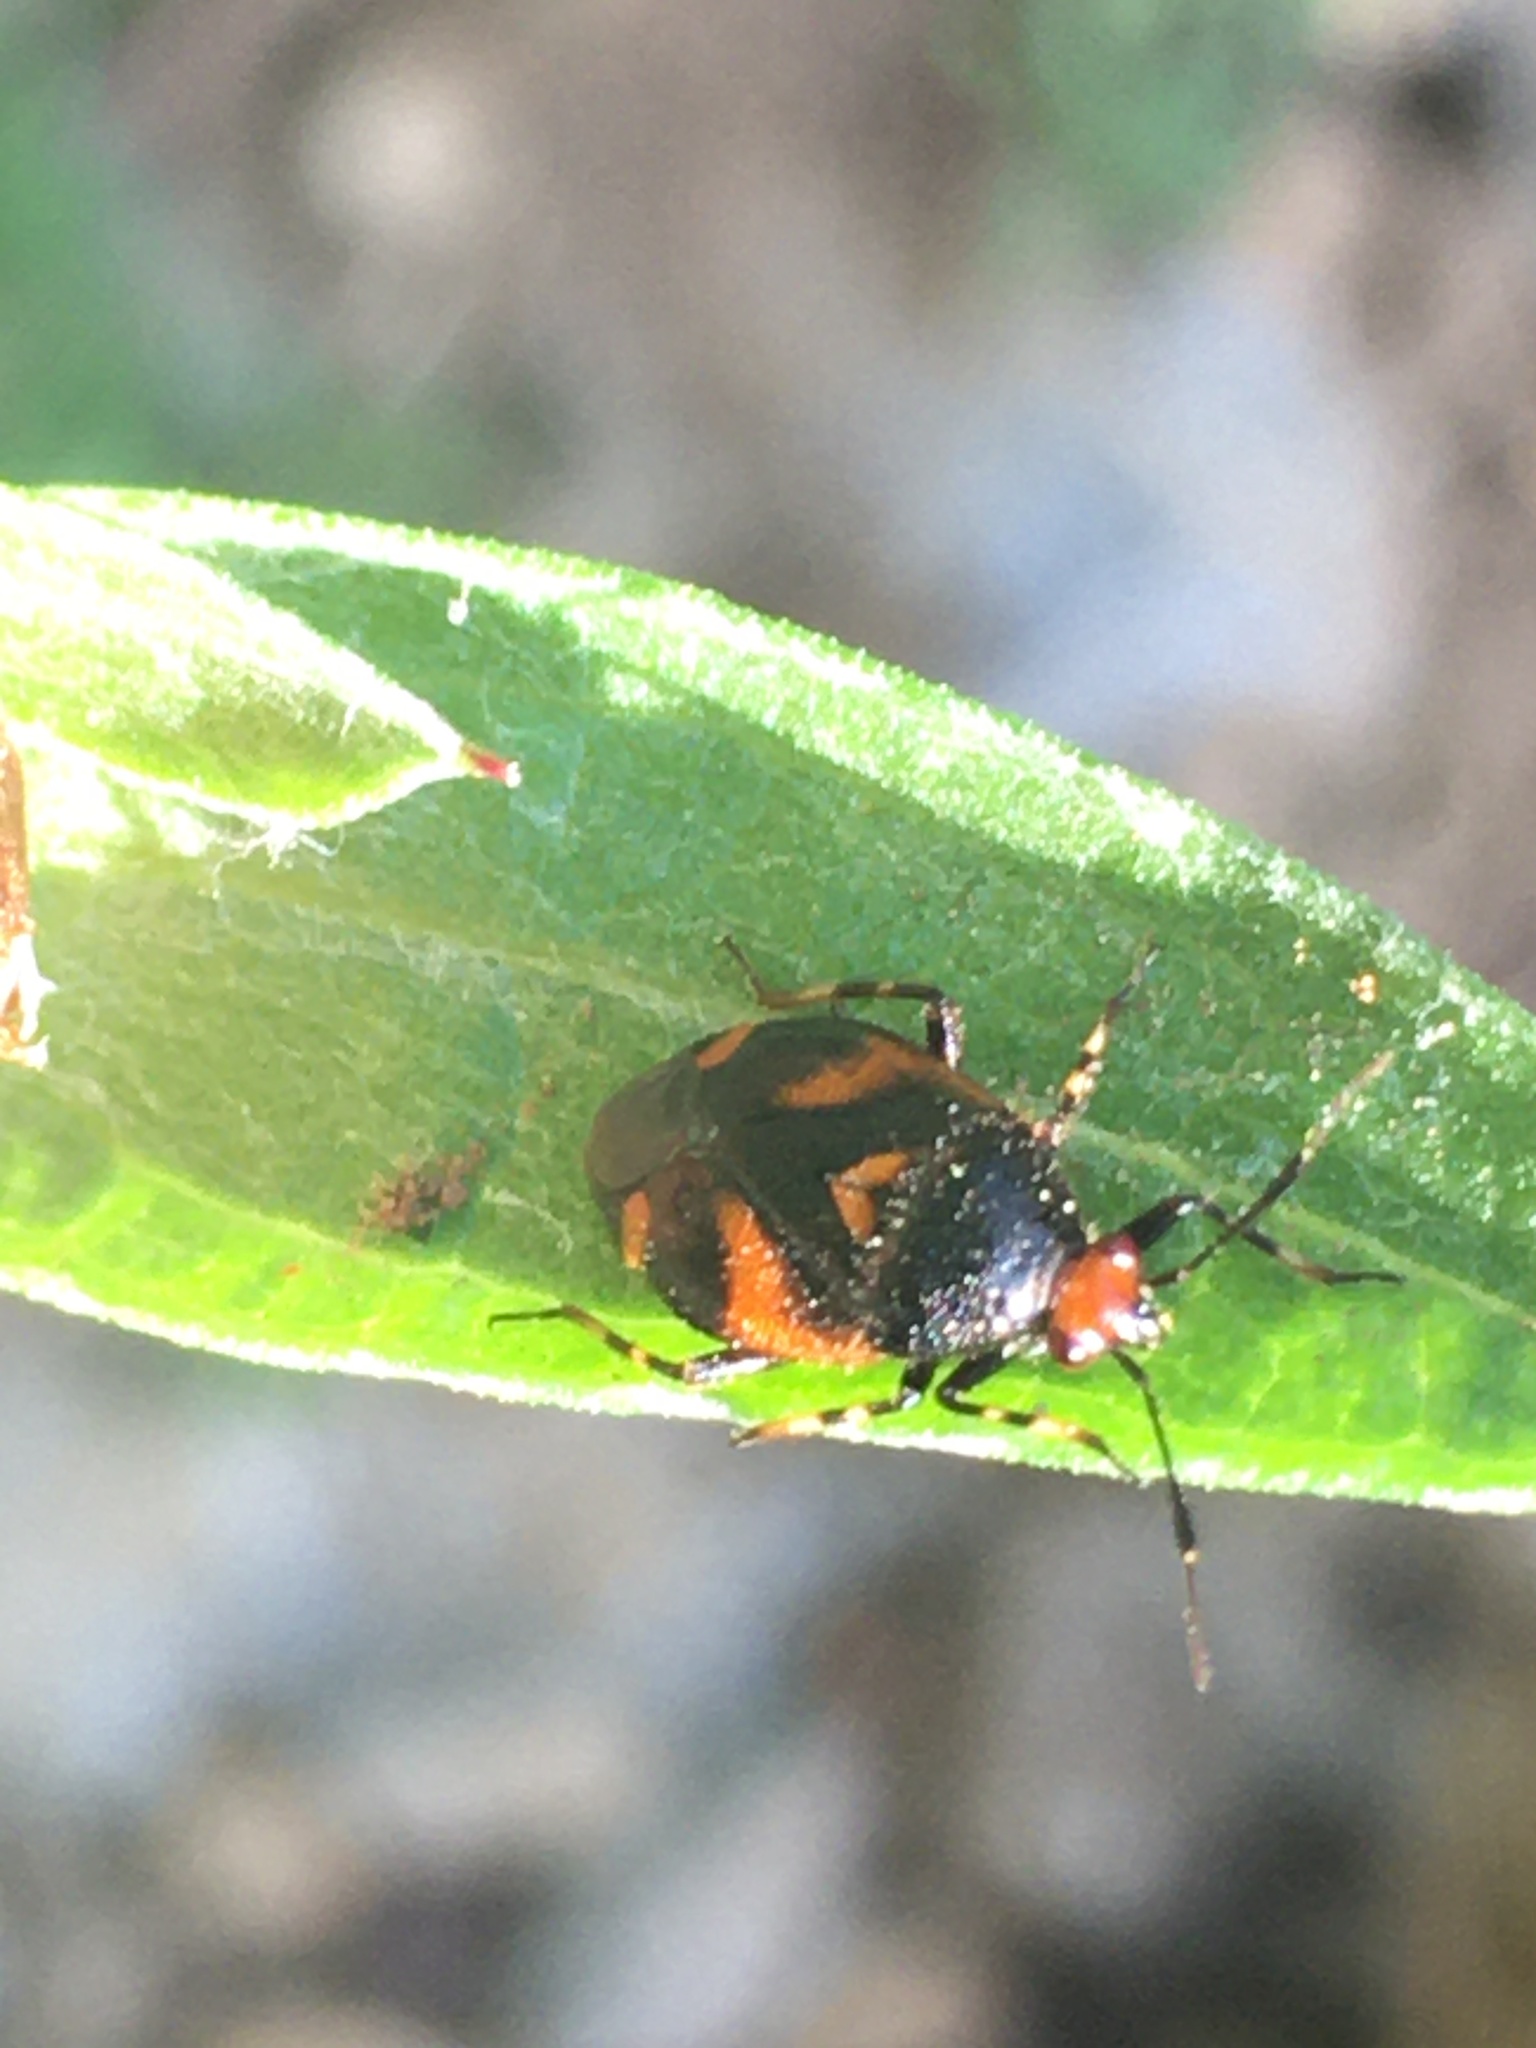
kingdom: Animalia
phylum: Arthropoda
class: Insecta
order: Hemiptera
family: Miridae
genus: Deraeocoris
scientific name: Deraeocoris schach
